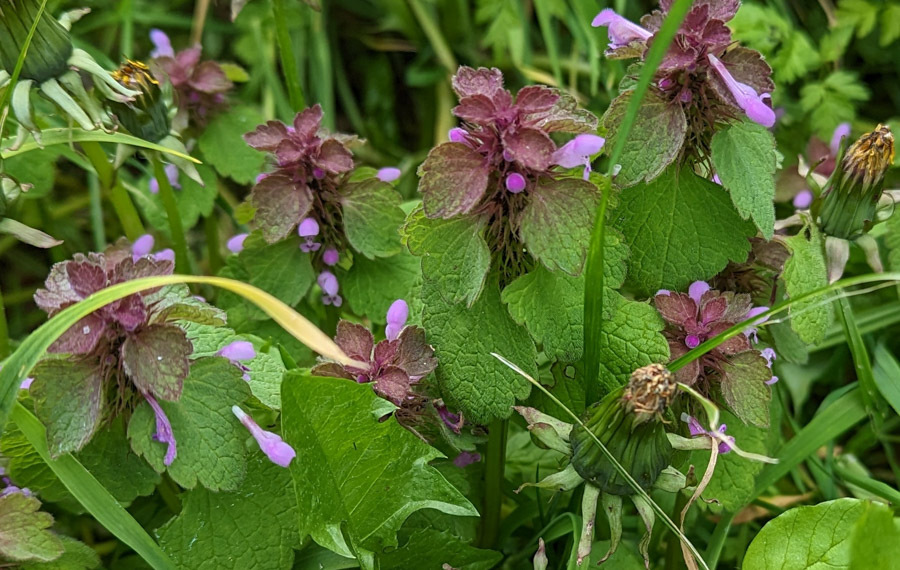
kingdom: Plantae
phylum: Tracheophyta
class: Magnoliopsida
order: Lamiales
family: Lamiaceae
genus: Lamium
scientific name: Lamium purpureum
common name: Red dead-nettle
